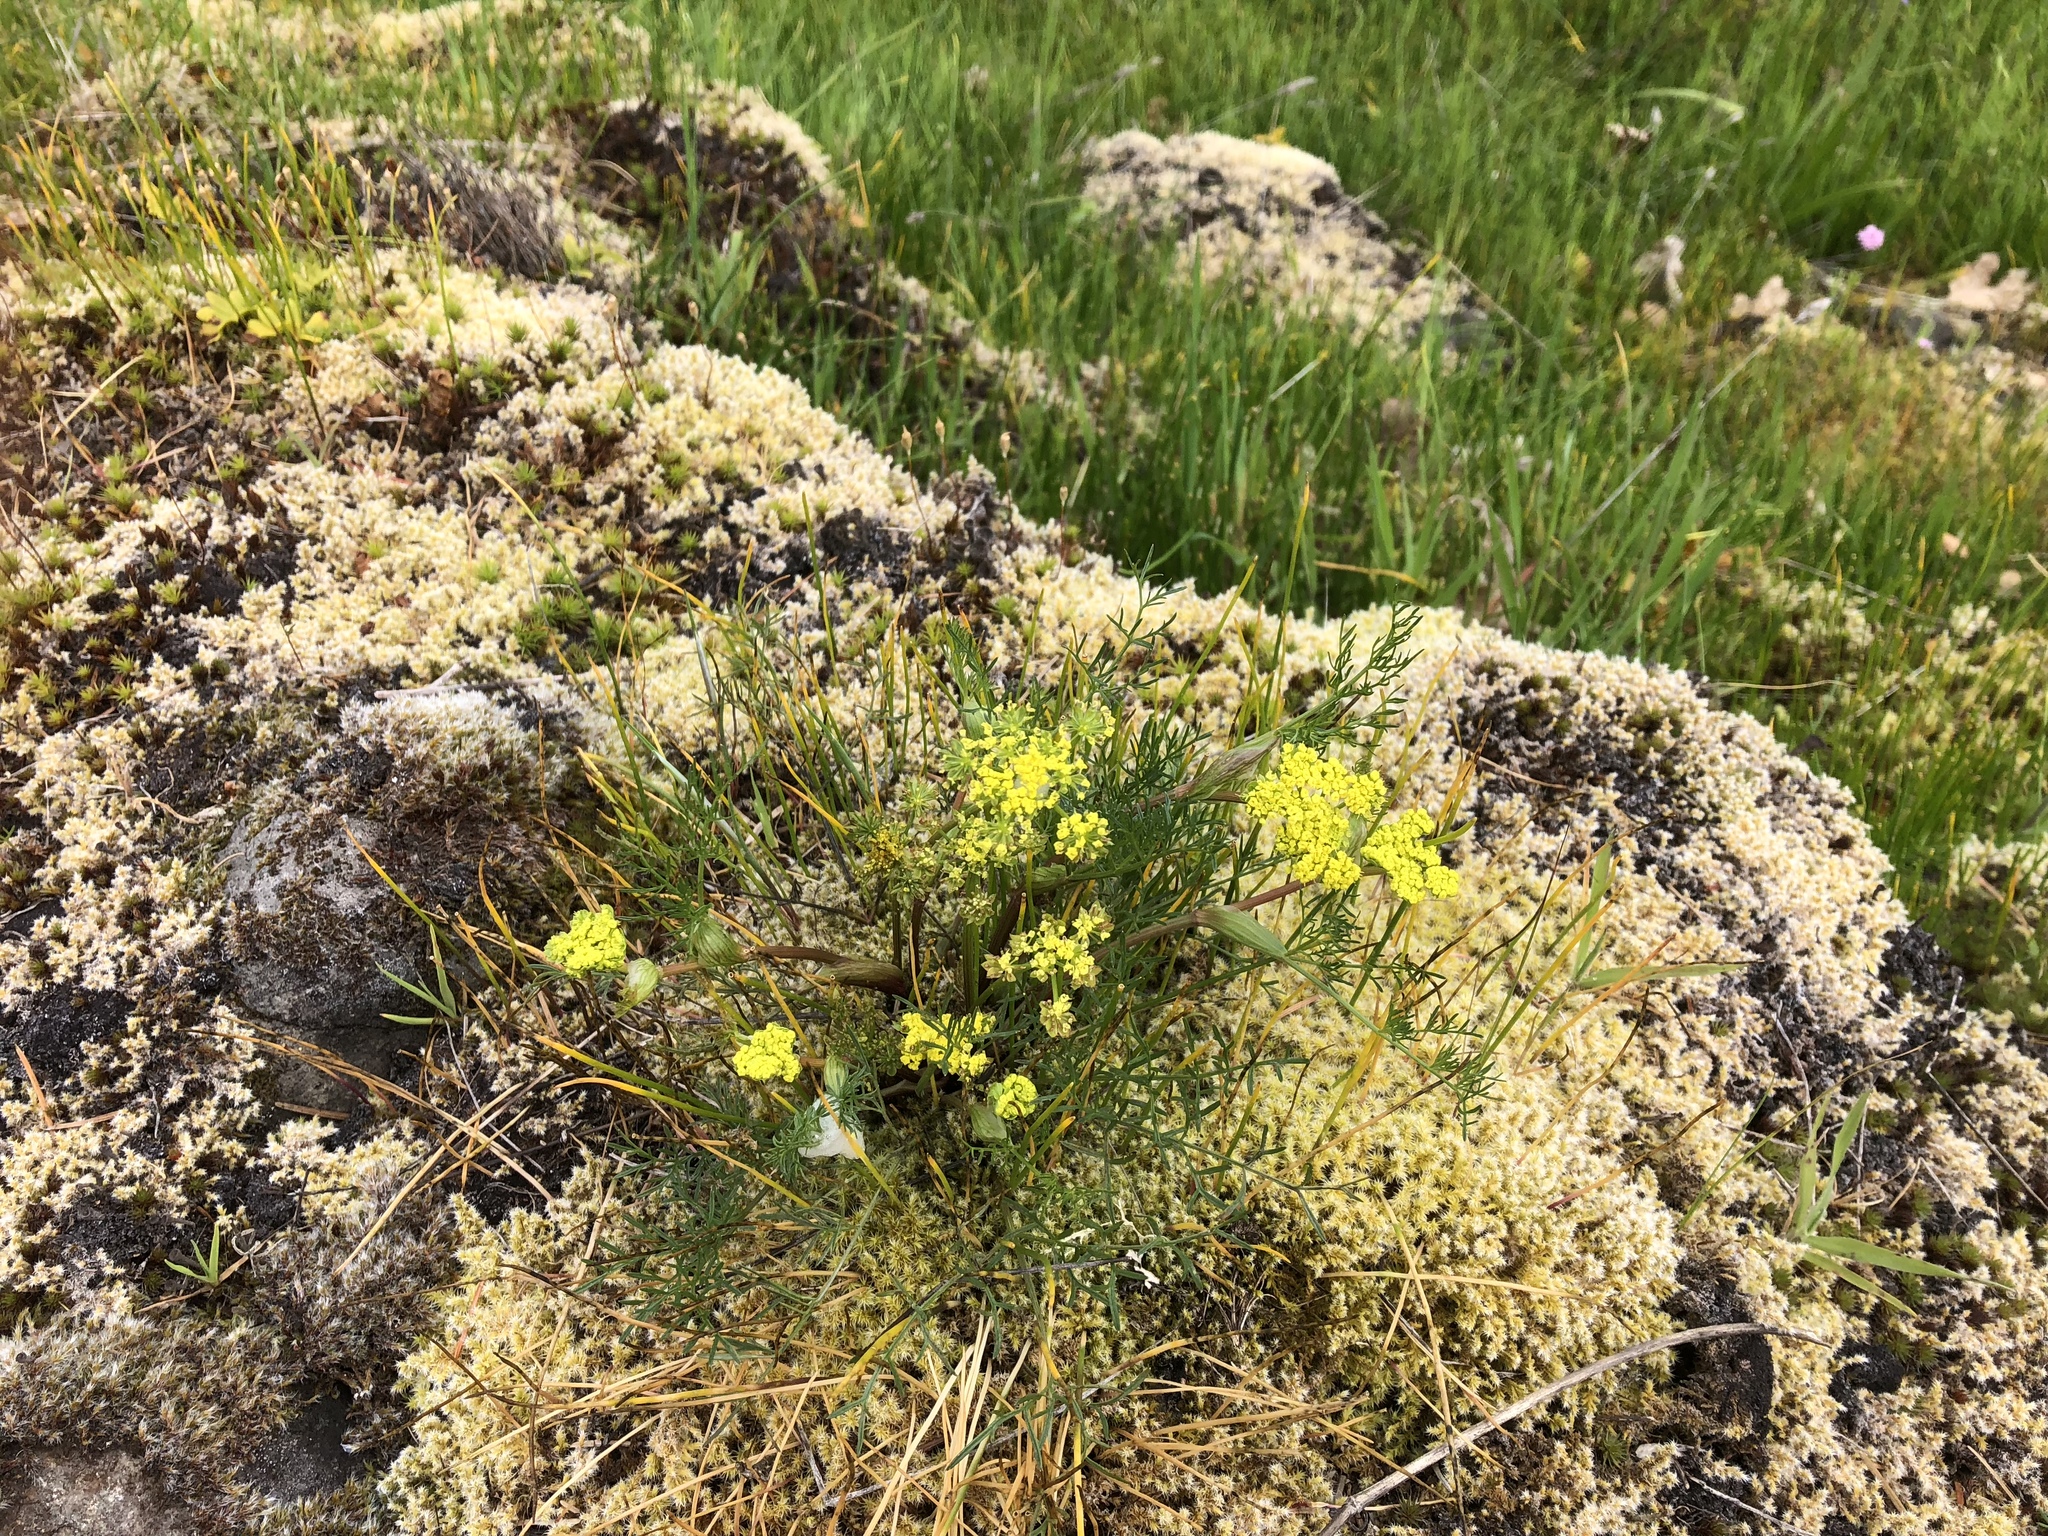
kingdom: Plantae
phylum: Tracheophyta
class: Magnoliopsida
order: Apiales
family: Apiaceae
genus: Lomatium
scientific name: Lomatium utriculatum
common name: Fine-leaf desert-parsley
